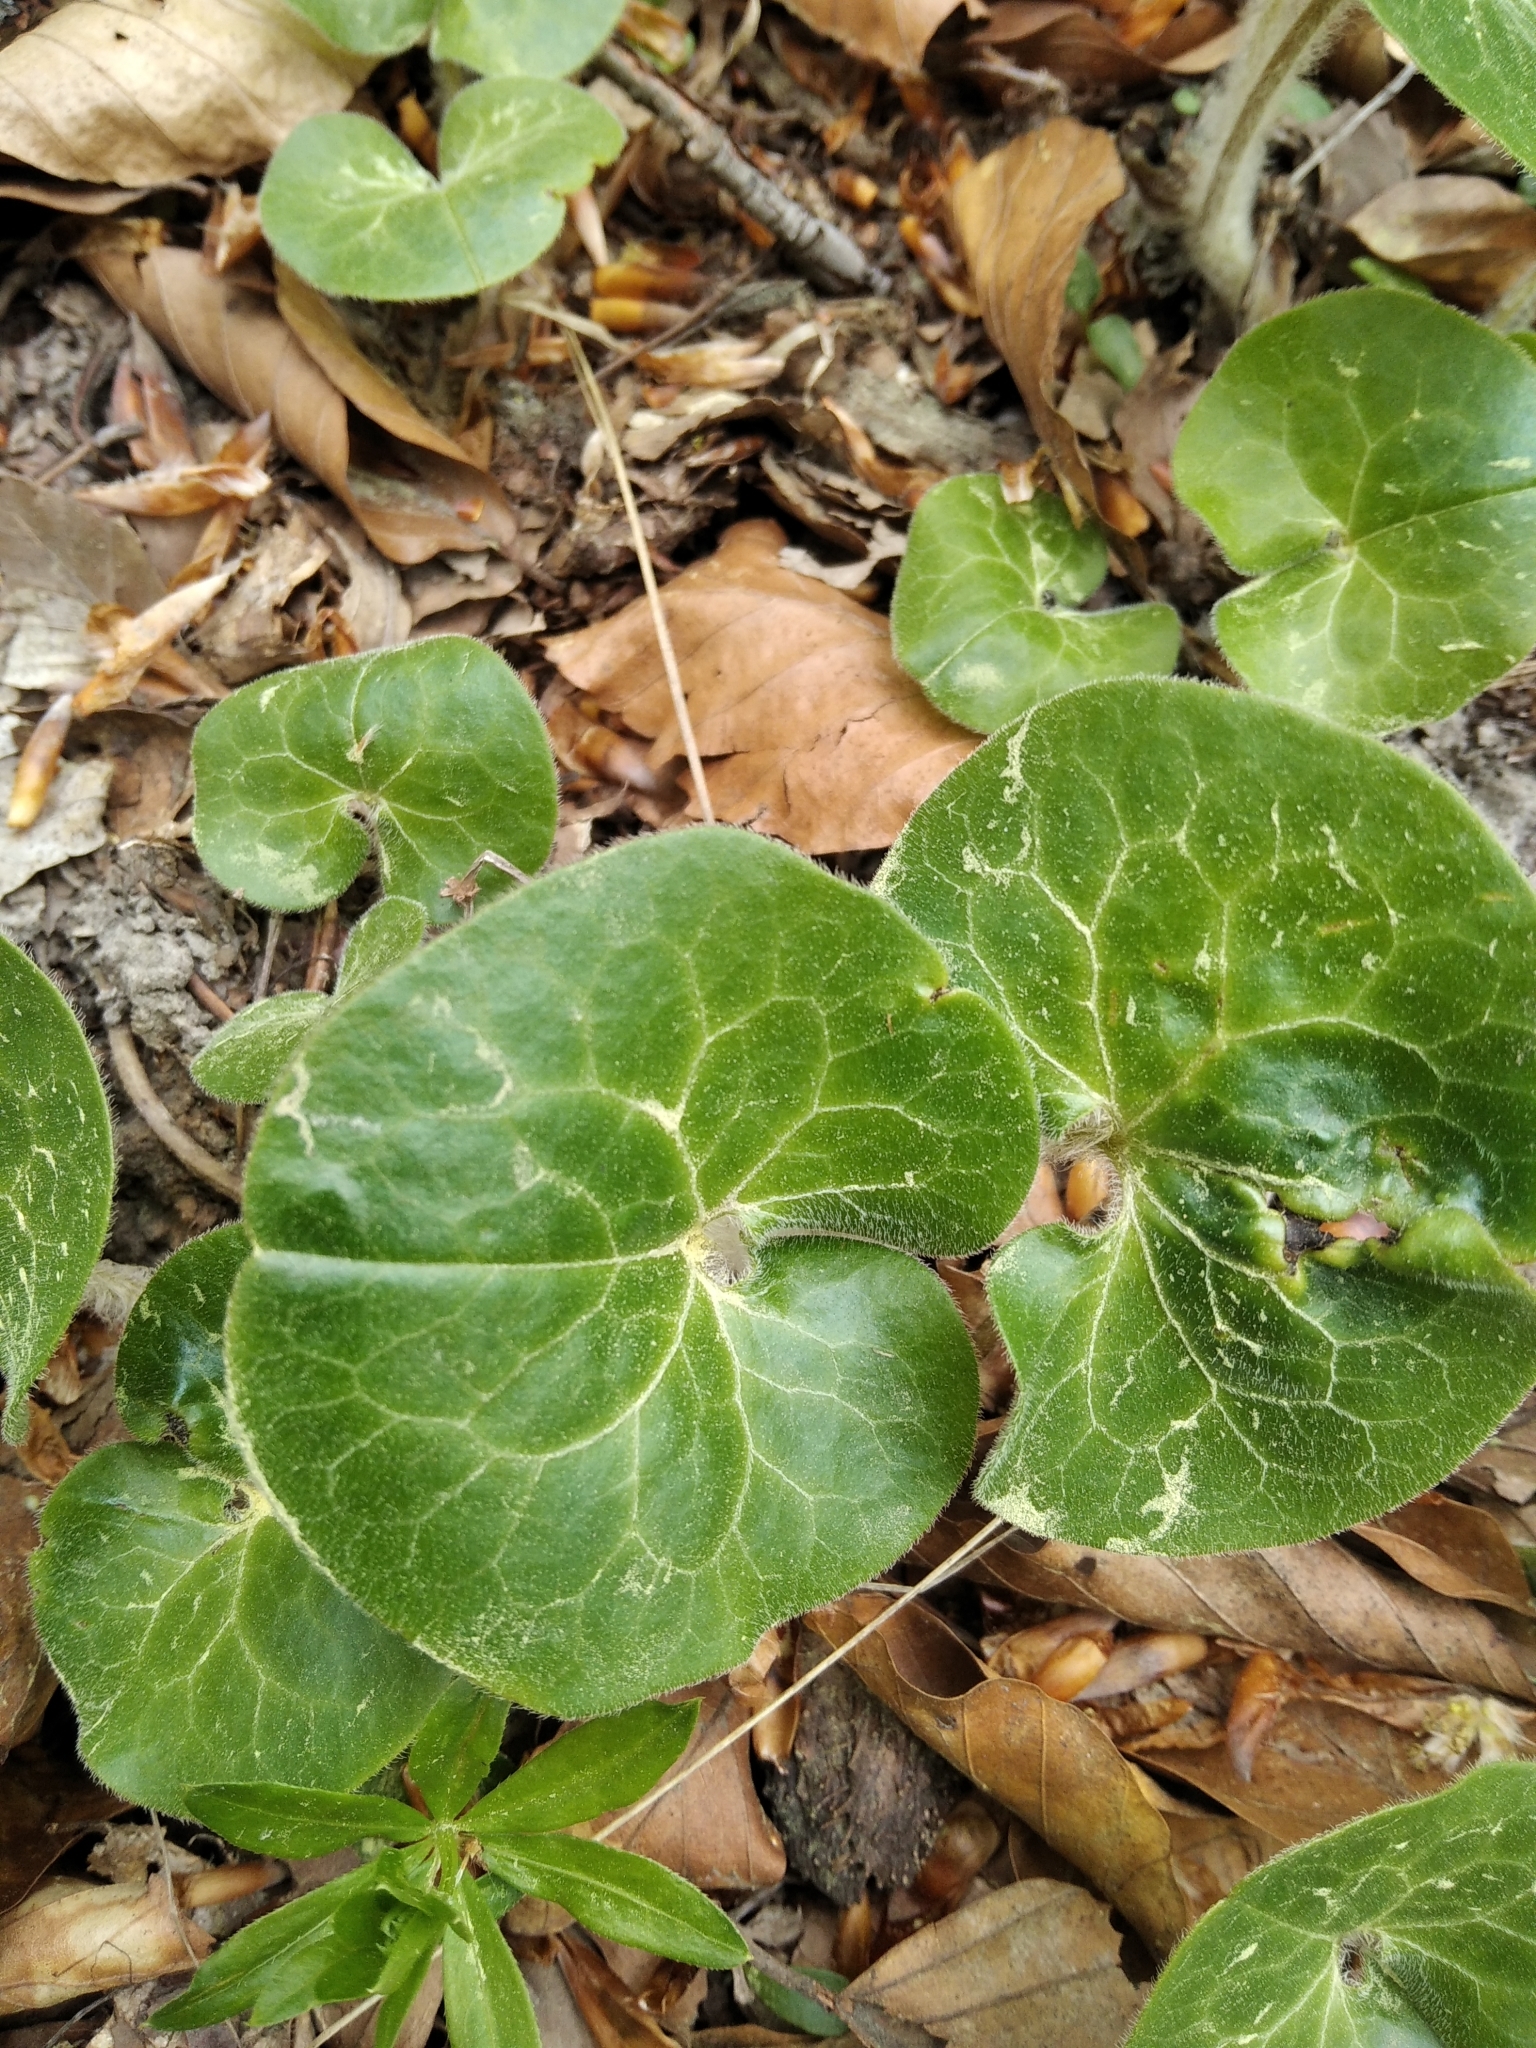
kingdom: Plantae
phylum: Tracheophyta
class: Magnoliopsida
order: Piperales
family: Aristolochiaceae
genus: Asarum
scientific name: Asarum europaeum
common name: Asarabacca
